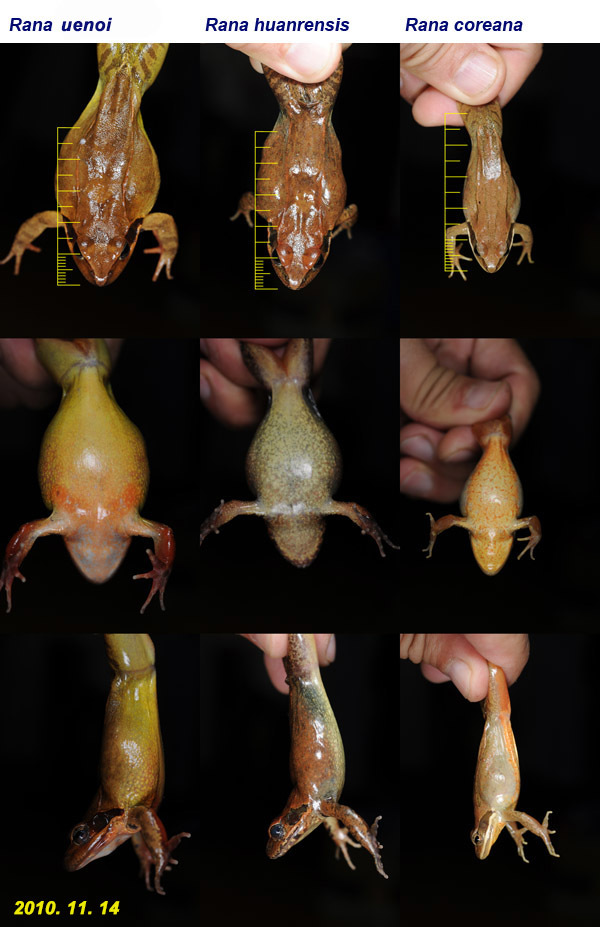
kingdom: Animalia
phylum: Chordata
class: Amphibia
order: Anura
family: Ranidae
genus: Rana
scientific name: Rana uenoi
